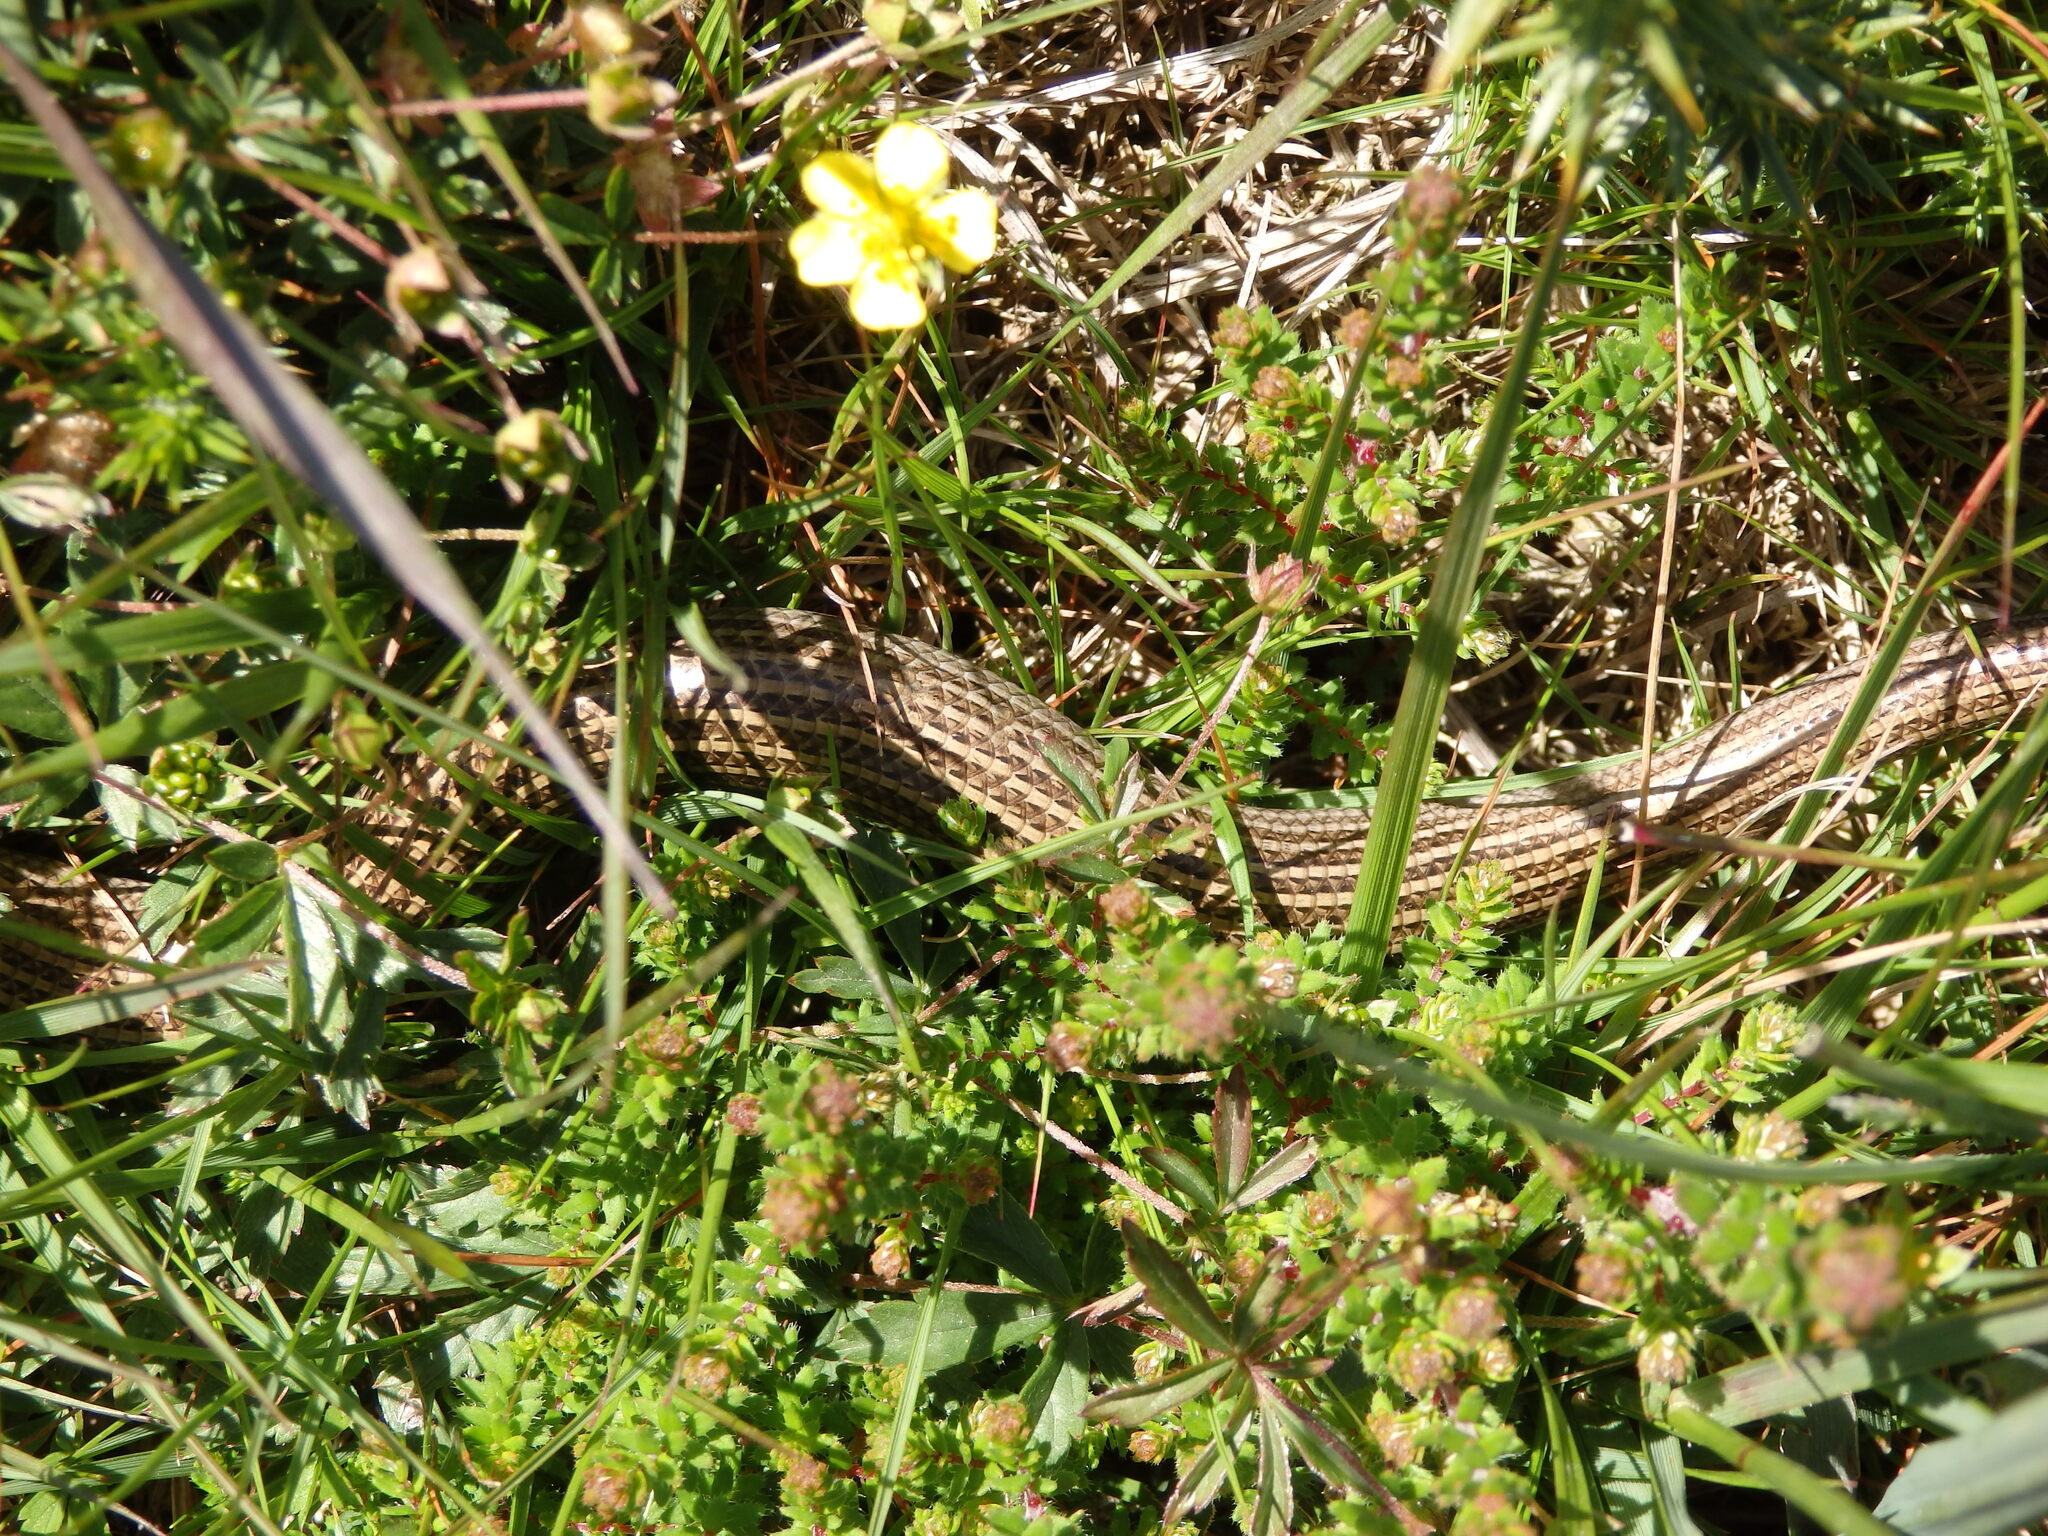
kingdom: Animalia
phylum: Chordata
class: Squamata
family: Scincidae
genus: Chalcides
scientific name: Chalcides striatus
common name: Western (or iberian) three-toed skink
